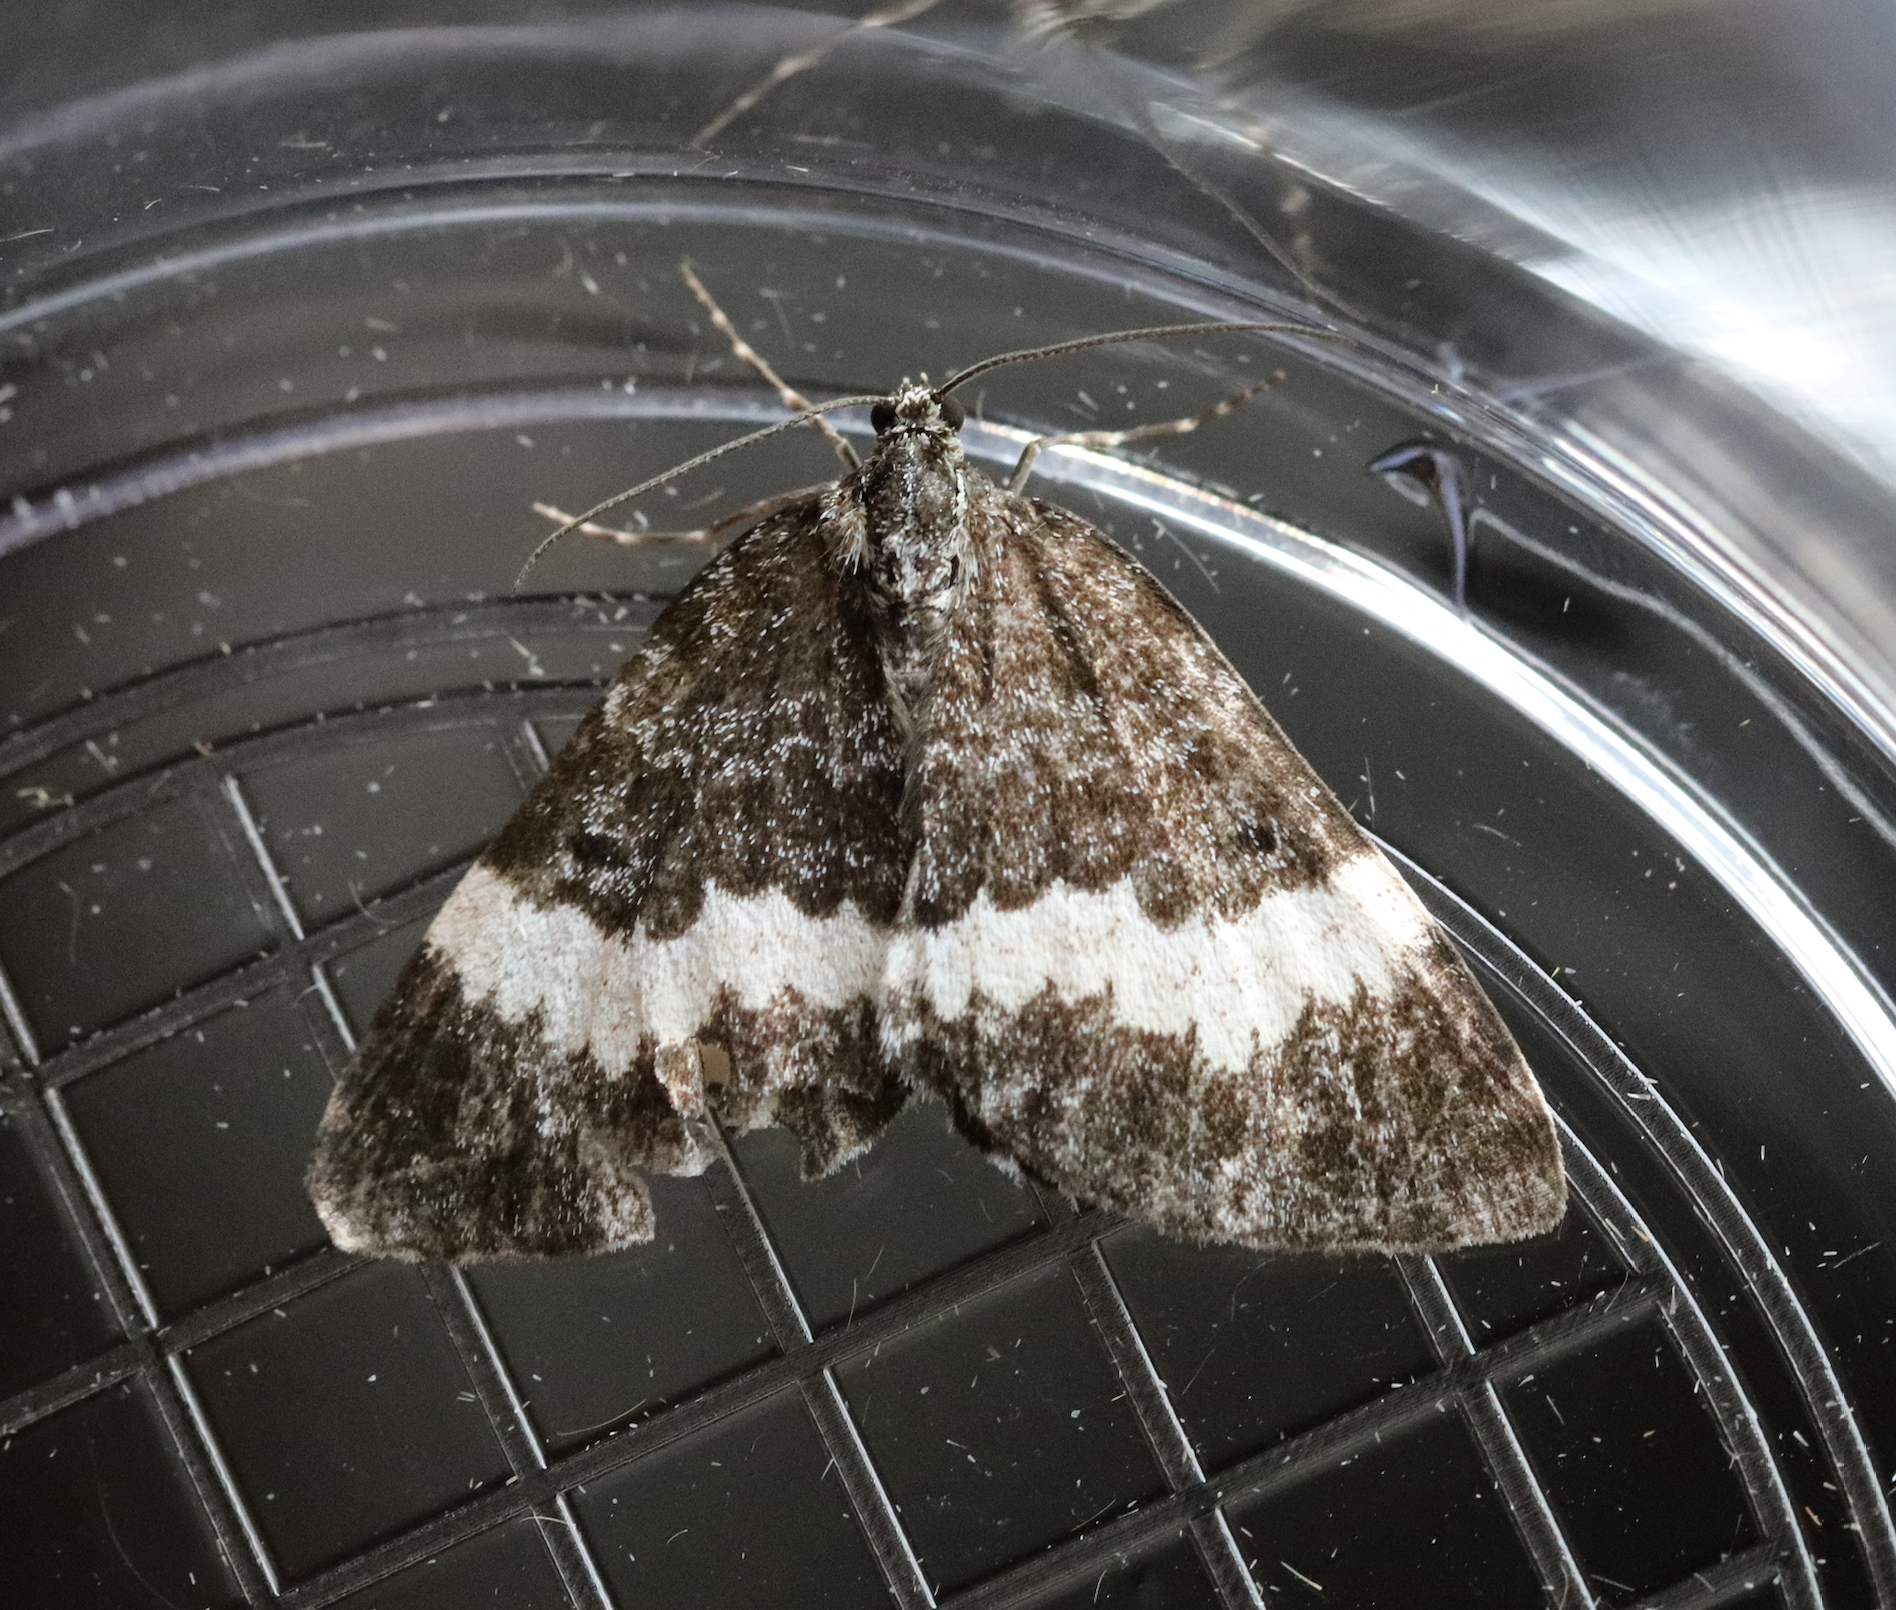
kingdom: Animalia
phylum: Arthropoda
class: Insecta
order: Lepidoptera
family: Geometridae
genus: Spargania
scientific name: Spargania luctuata
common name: White-banded carpet
